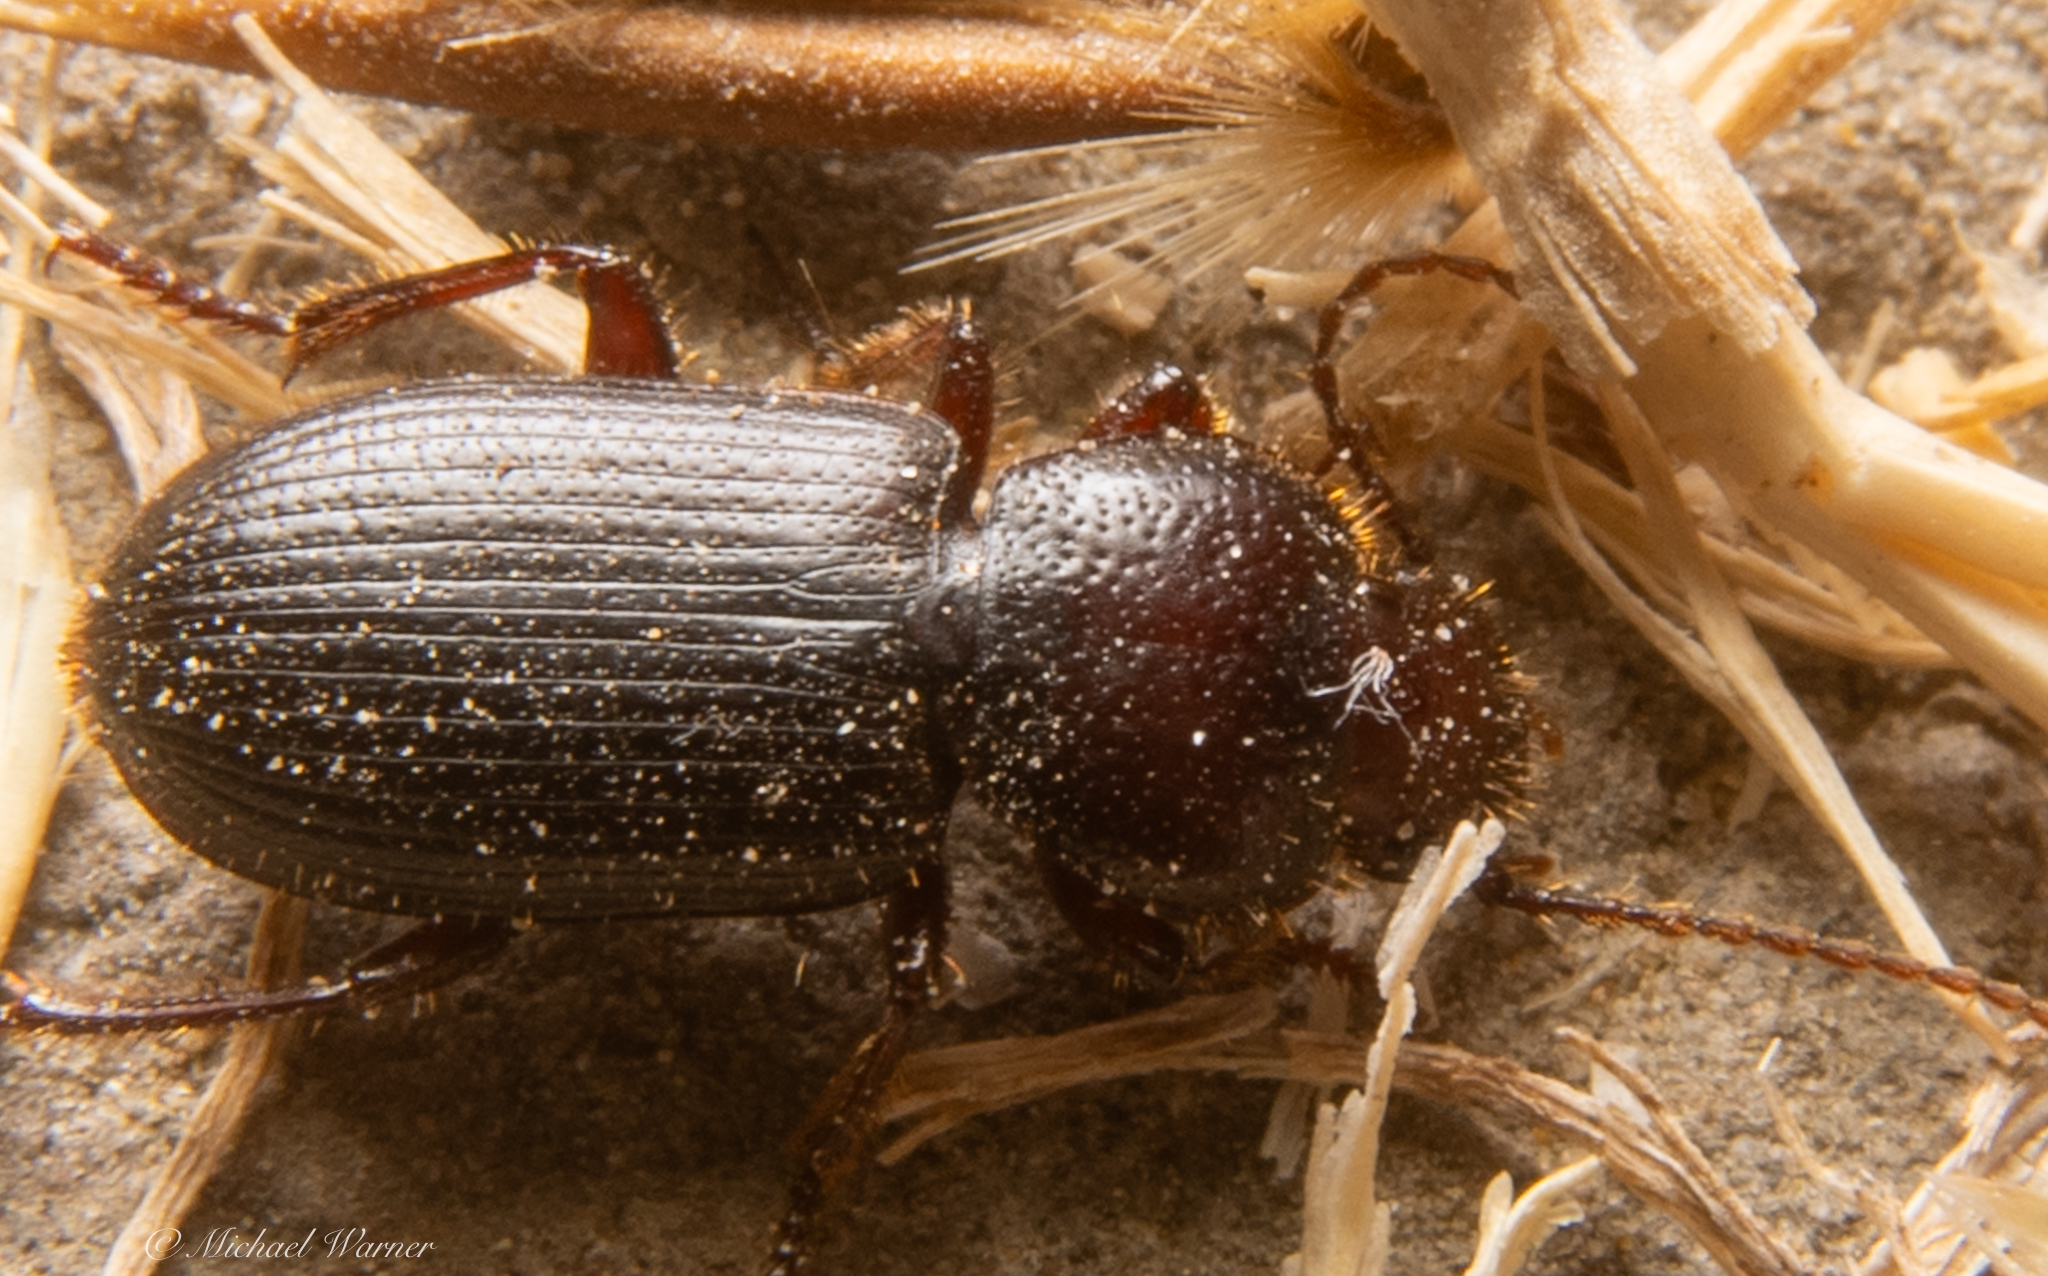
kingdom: Animalia
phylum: Arthropoda
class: Insecta
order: Coleoptera
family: Carabidae
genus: Dicheirus
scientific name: Dicheirus dilatatus
